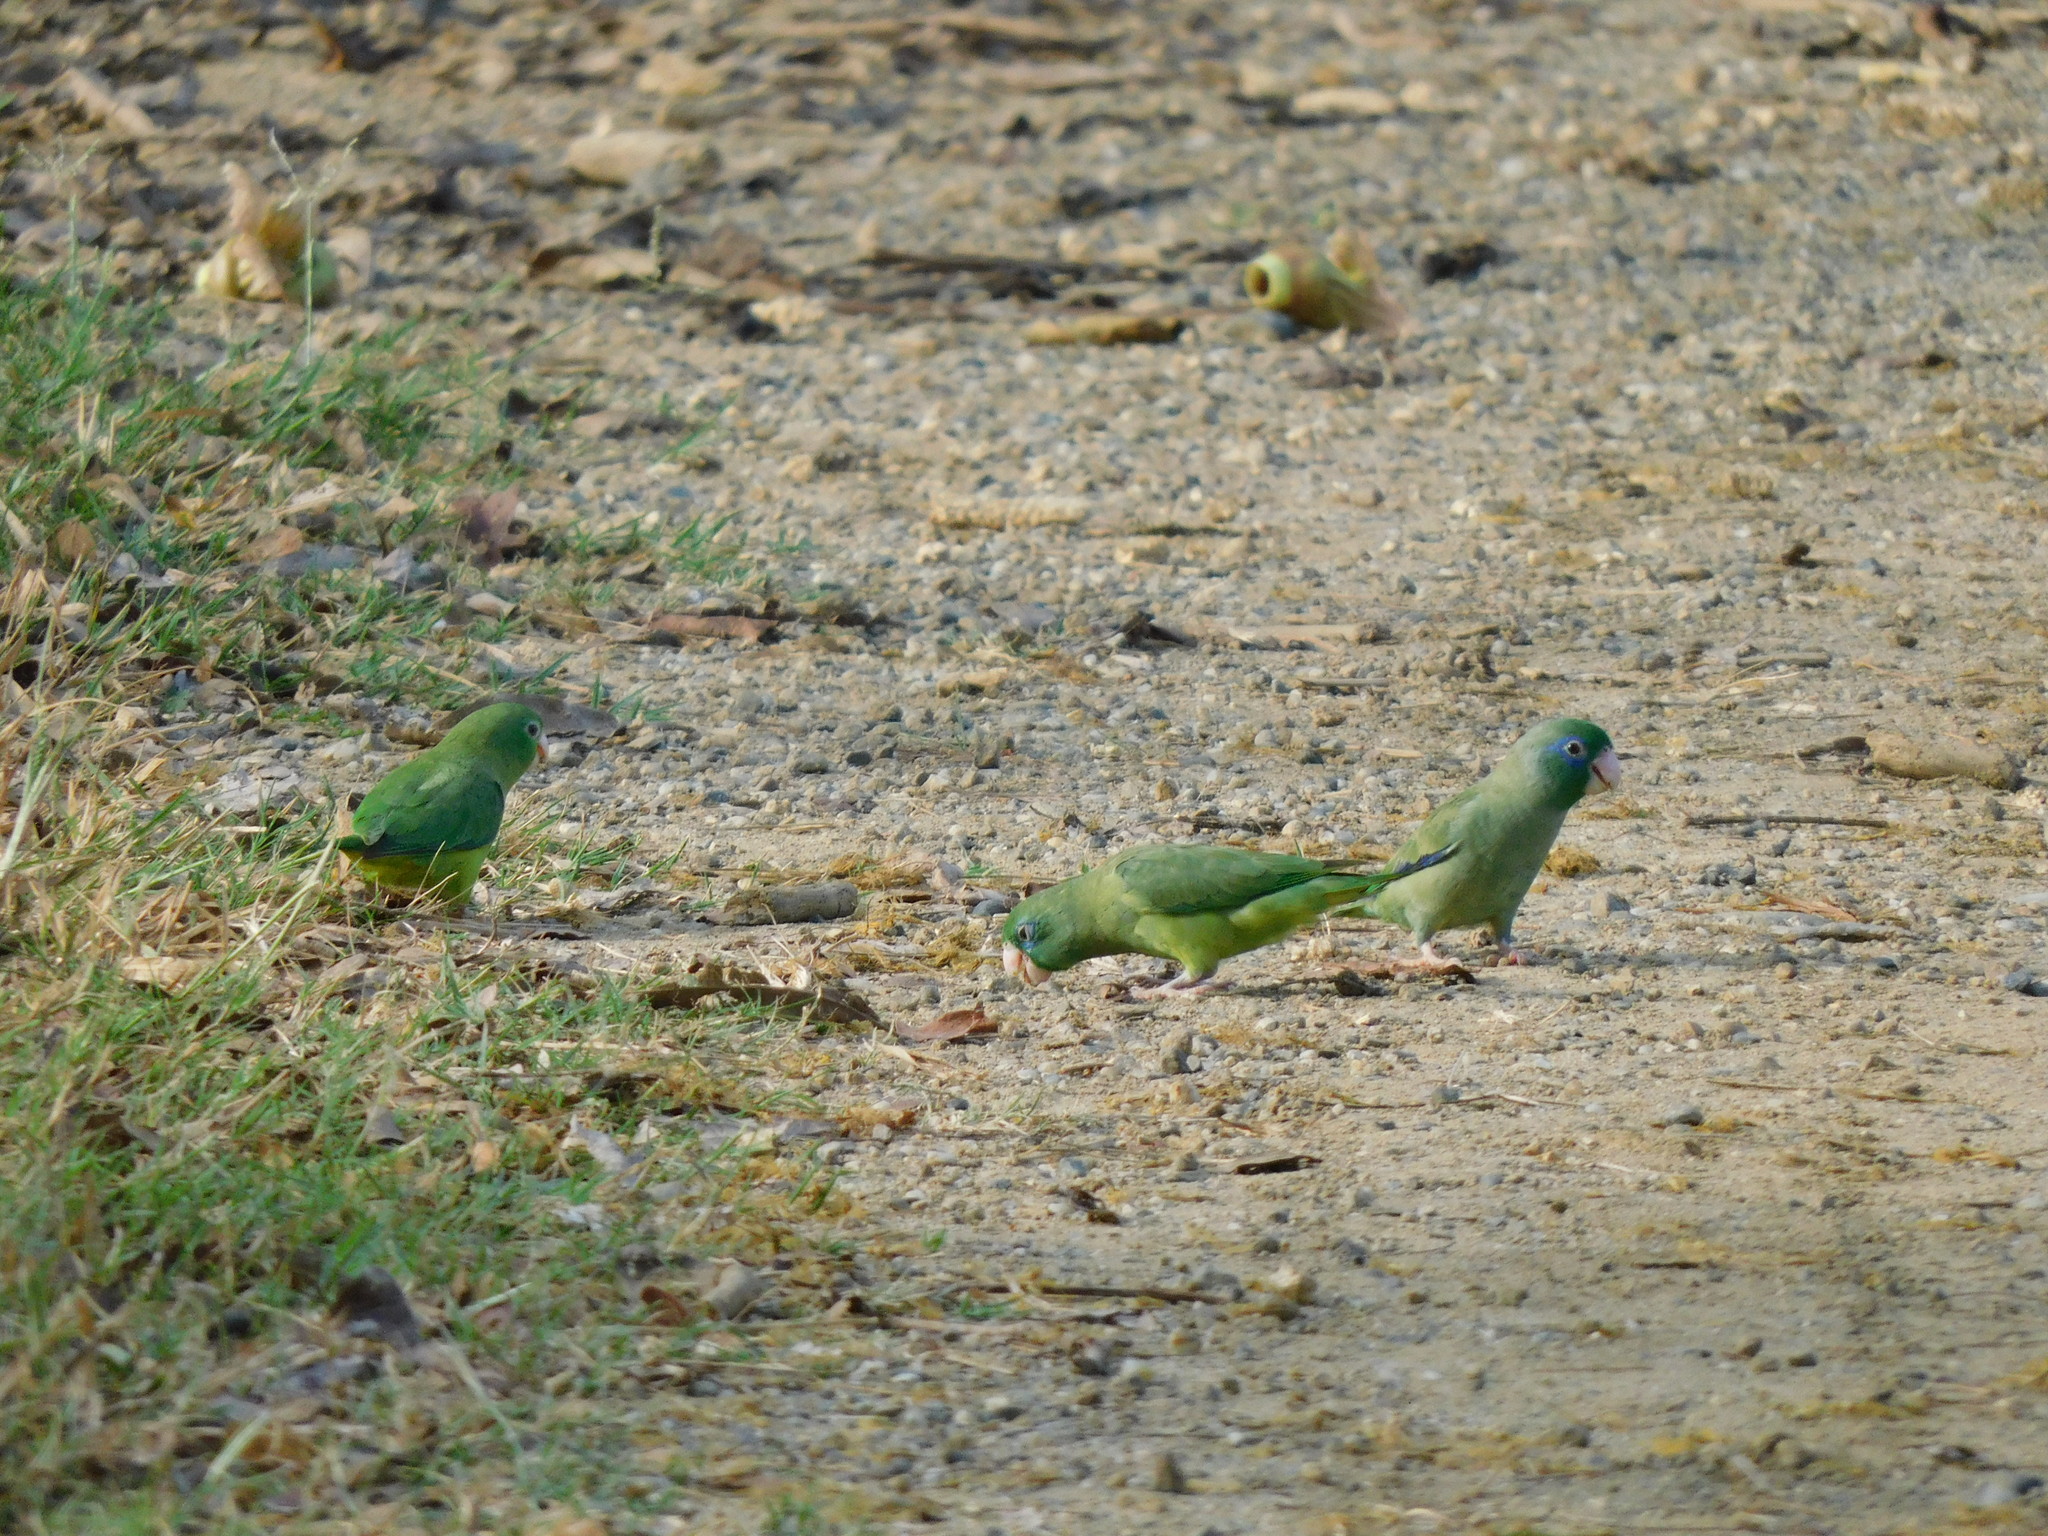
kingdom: Animalia
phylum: Chordata
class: Aves
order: Psittaciformes
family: Psittacidae
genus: Forpus
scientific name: Forpus conspicillatus
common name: Spectacled parrotlet
